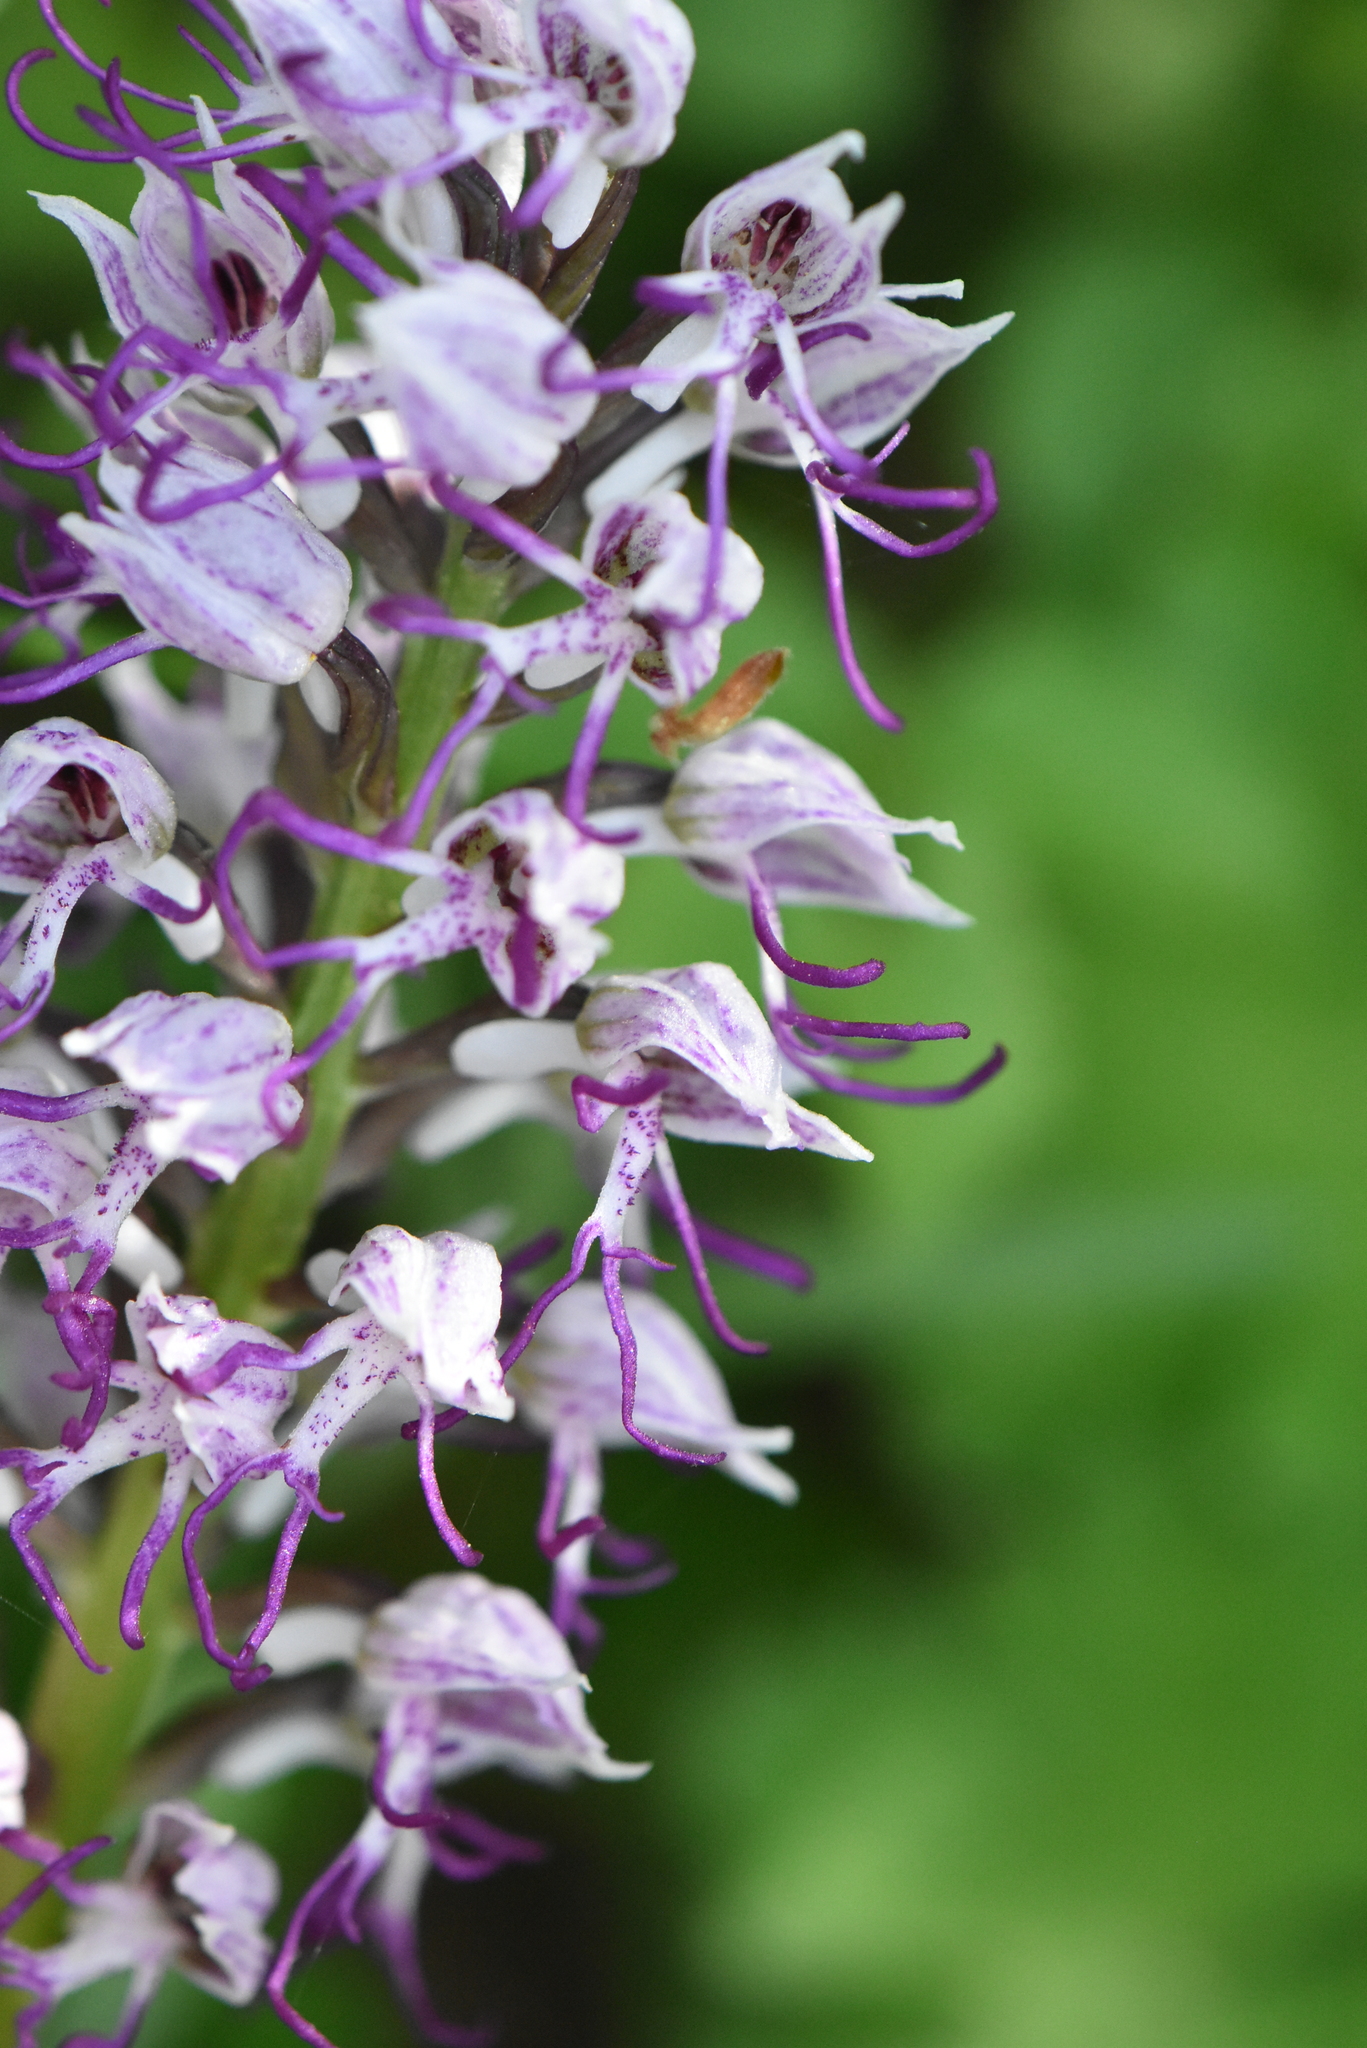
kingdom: Plantae
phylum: Tracheophyta
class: Liliopsida
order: Asparagales
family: Orchidaceae
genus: Orchis
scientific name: Orchis simia
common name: Monkey orchid
